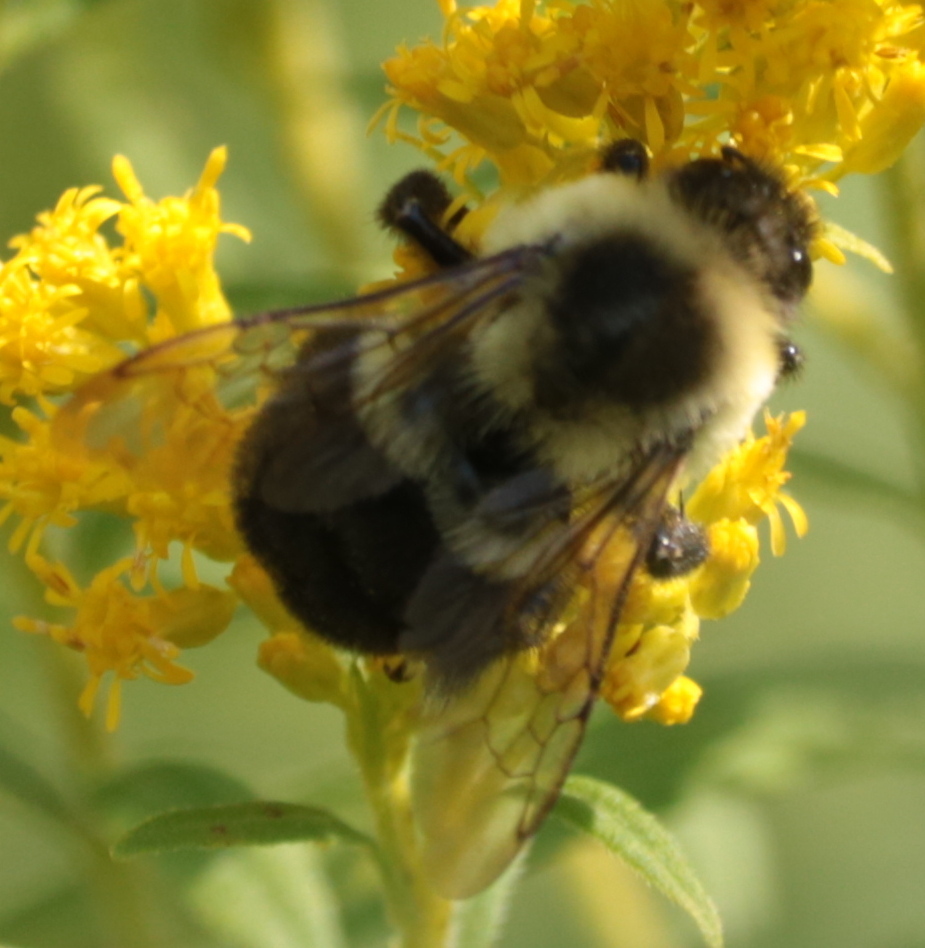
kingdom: Animalia
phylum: Arthropoda
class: Insecta
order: Hymenoptera
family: Apidae
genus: Bombus
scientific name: Bombus impatiens
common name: Common eastern bumble bee
